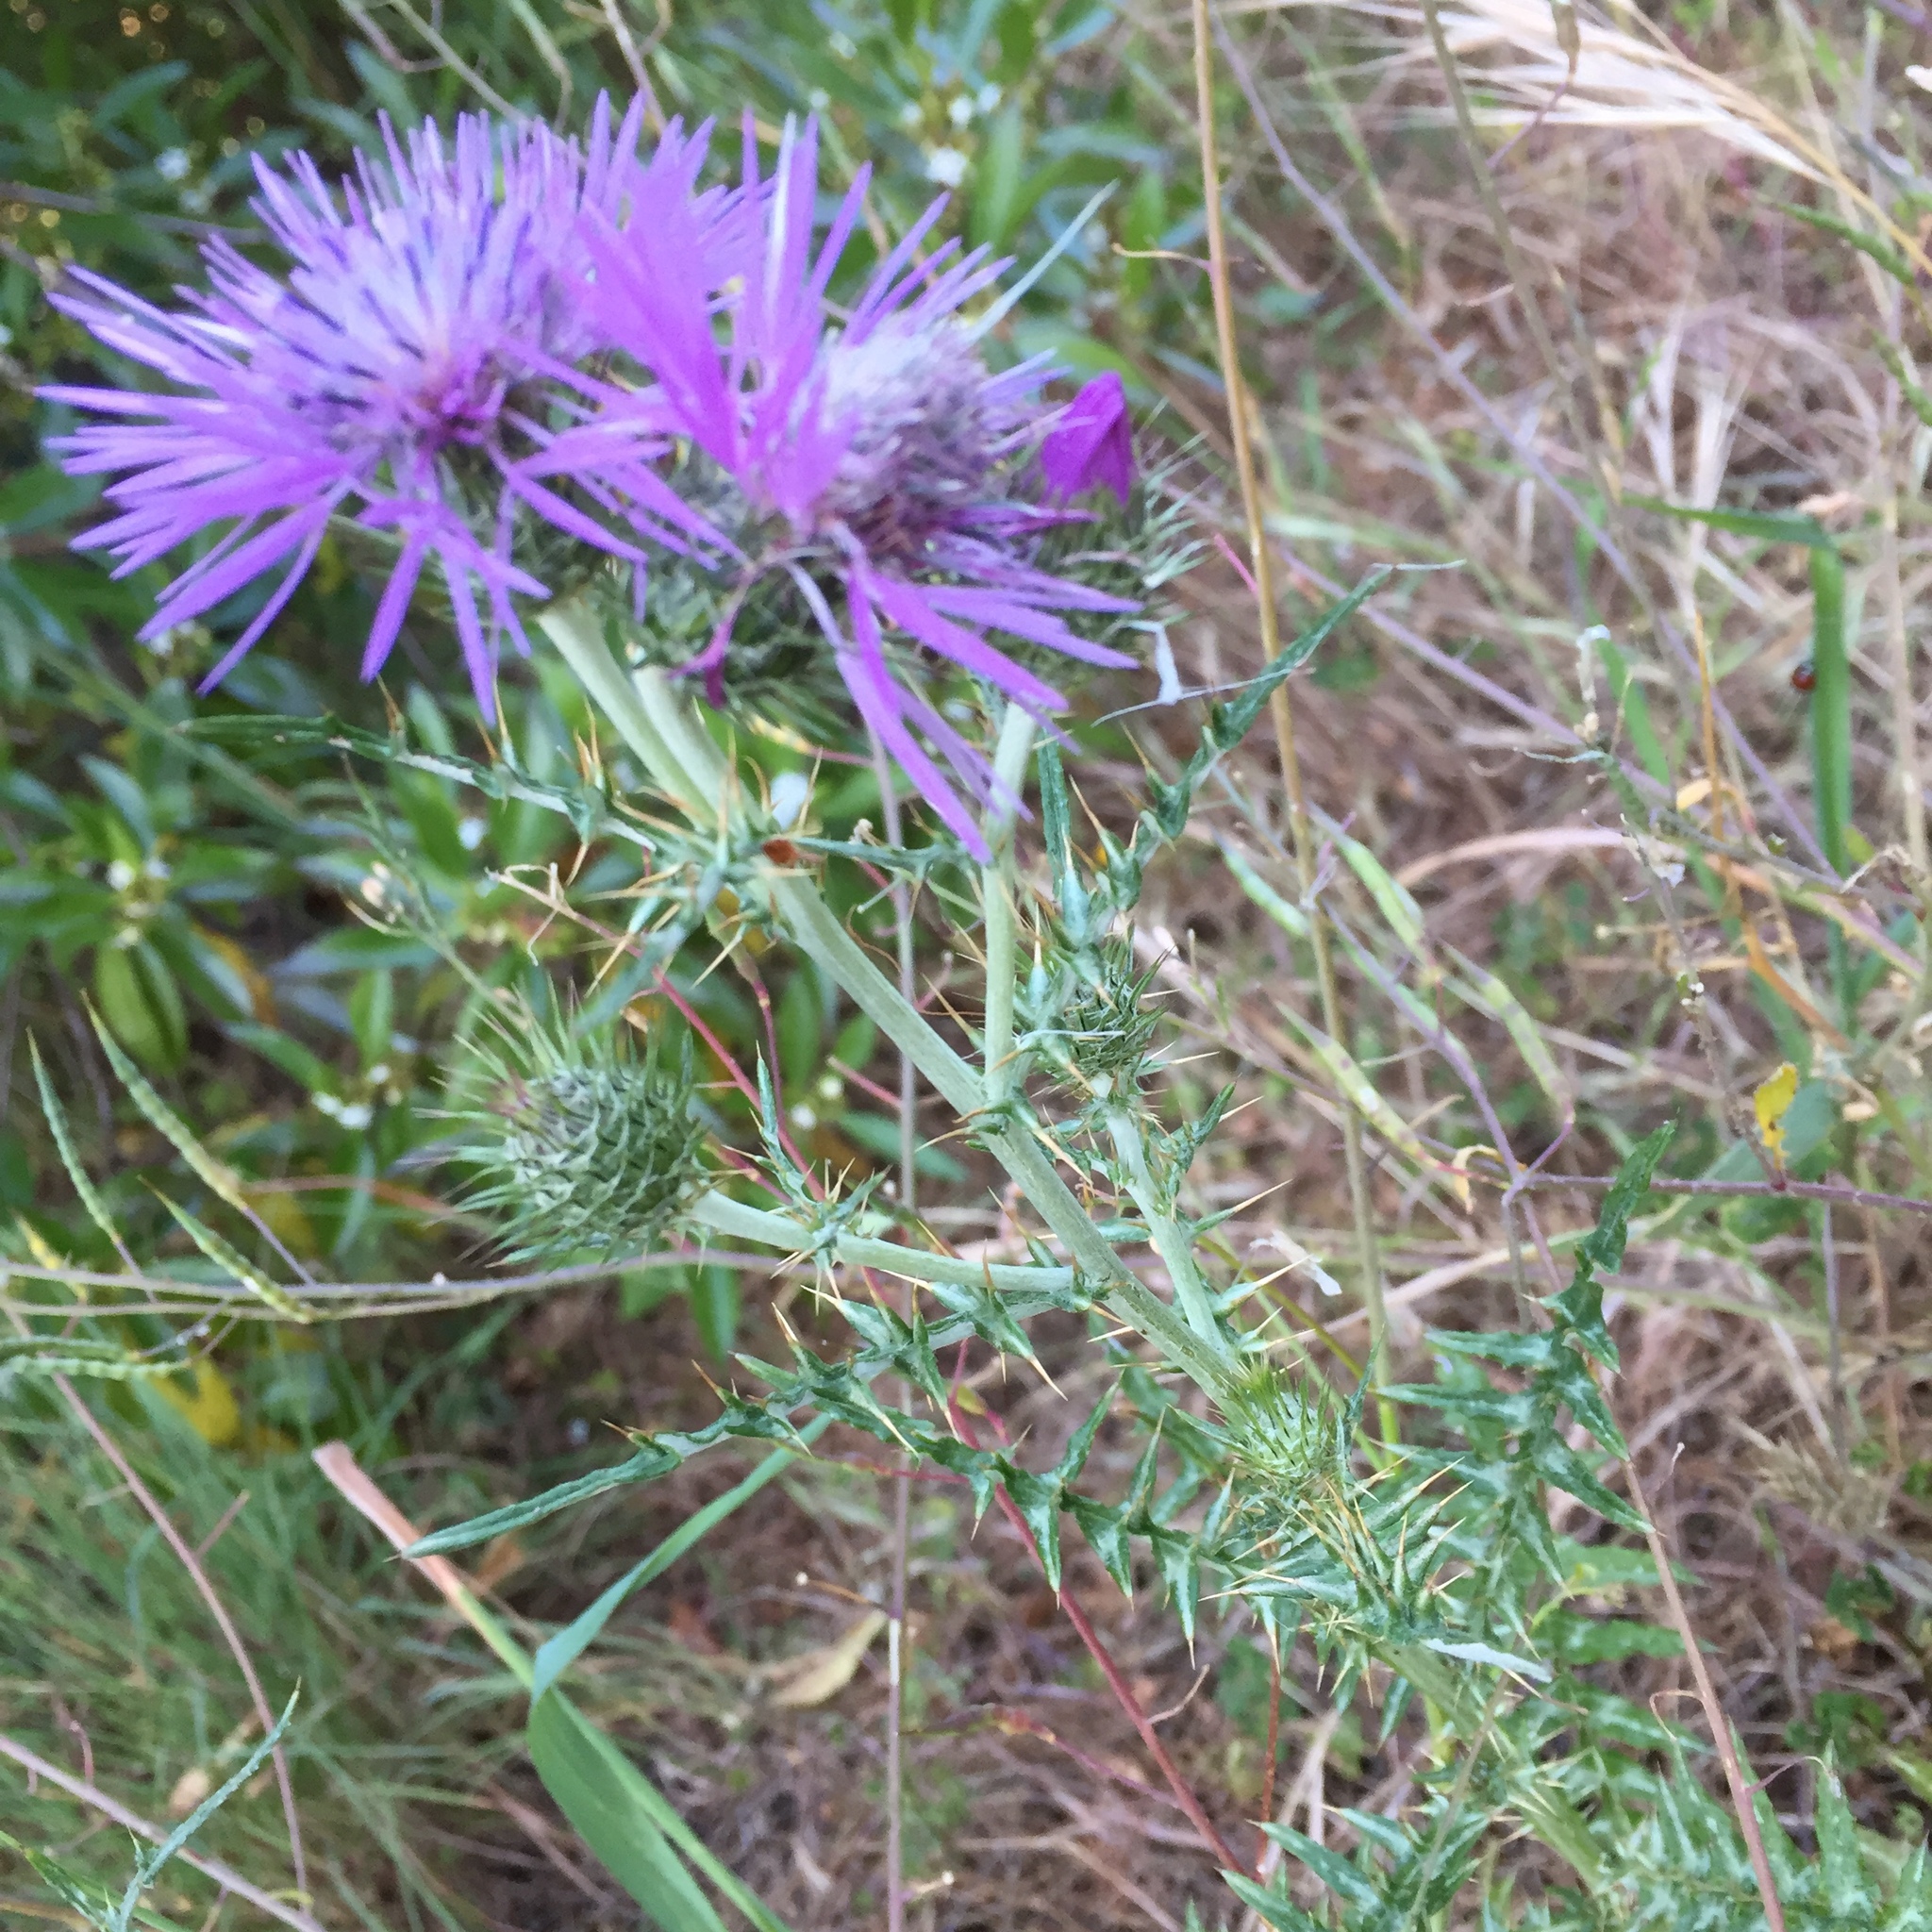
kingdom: Plantae
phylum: Tracheophyta
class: Magnoliopsida
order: Asterales
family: Asteraceae
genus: Galactites
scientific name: Galactites tomentosa
